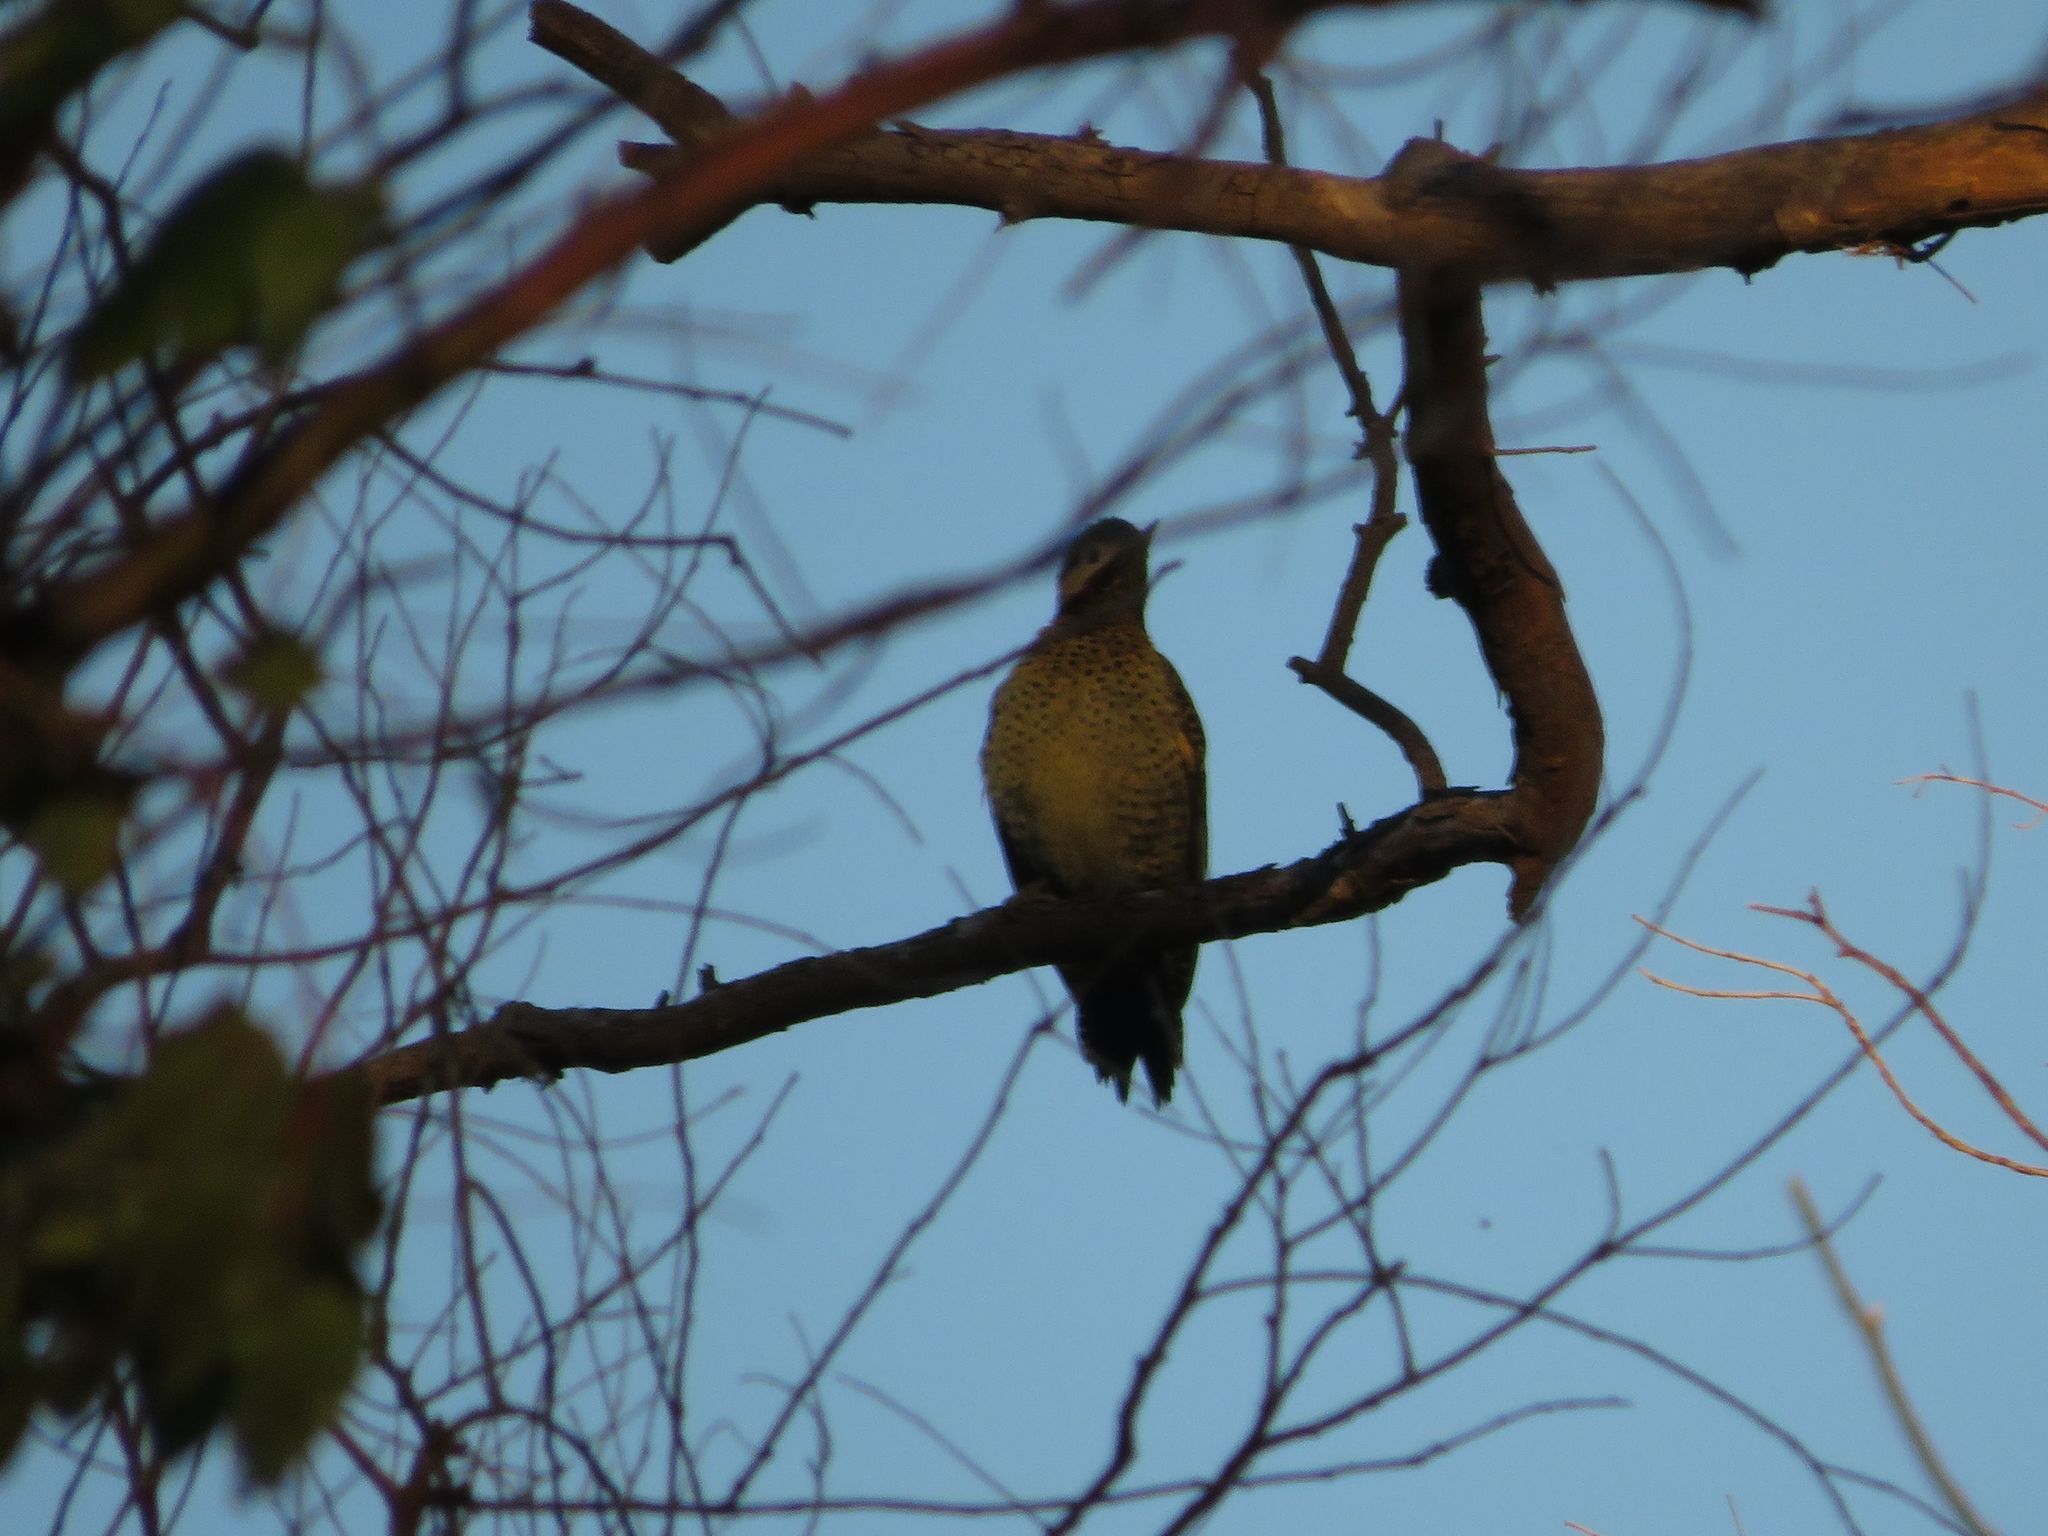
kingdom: Animalia
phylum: Chordata
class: Aves
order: Piciformes
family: Picidae
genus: Colaptes
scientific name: Colaptes melanochloros
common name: Green-barred woodpecker
